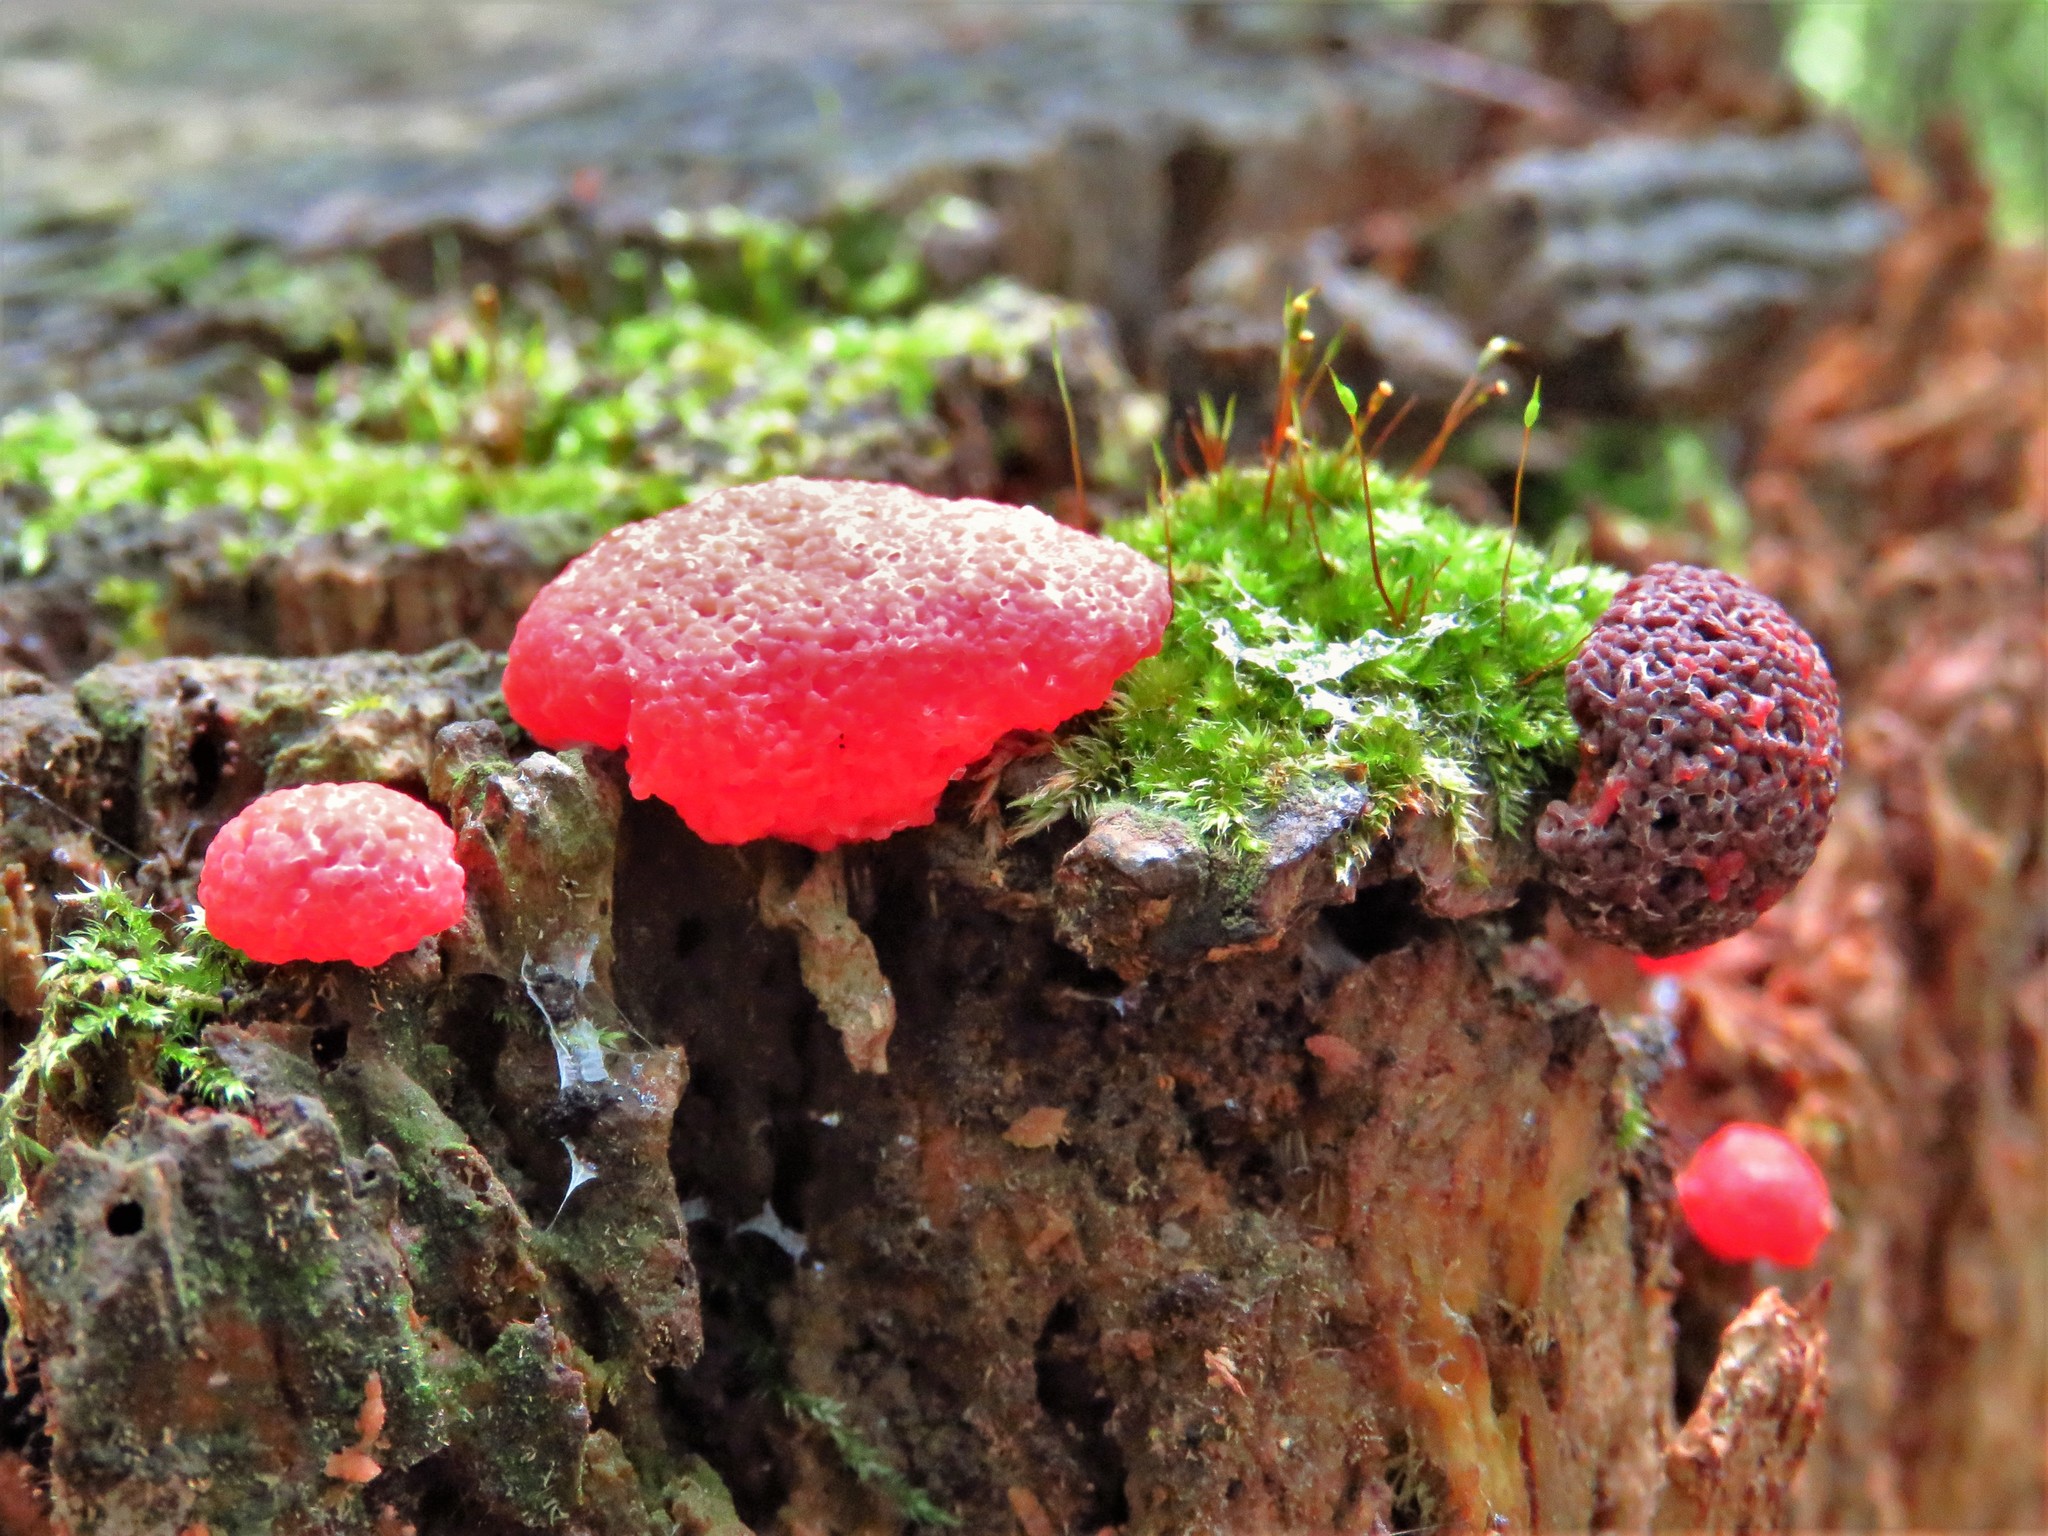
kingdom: Protozoa
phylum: Mycetozoa
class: Myxomycetes
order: Cribrariales
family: Tubiferaceae
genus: Tubifera
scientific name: Tubifera ferruginosa
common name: Red raspberry slime mold
